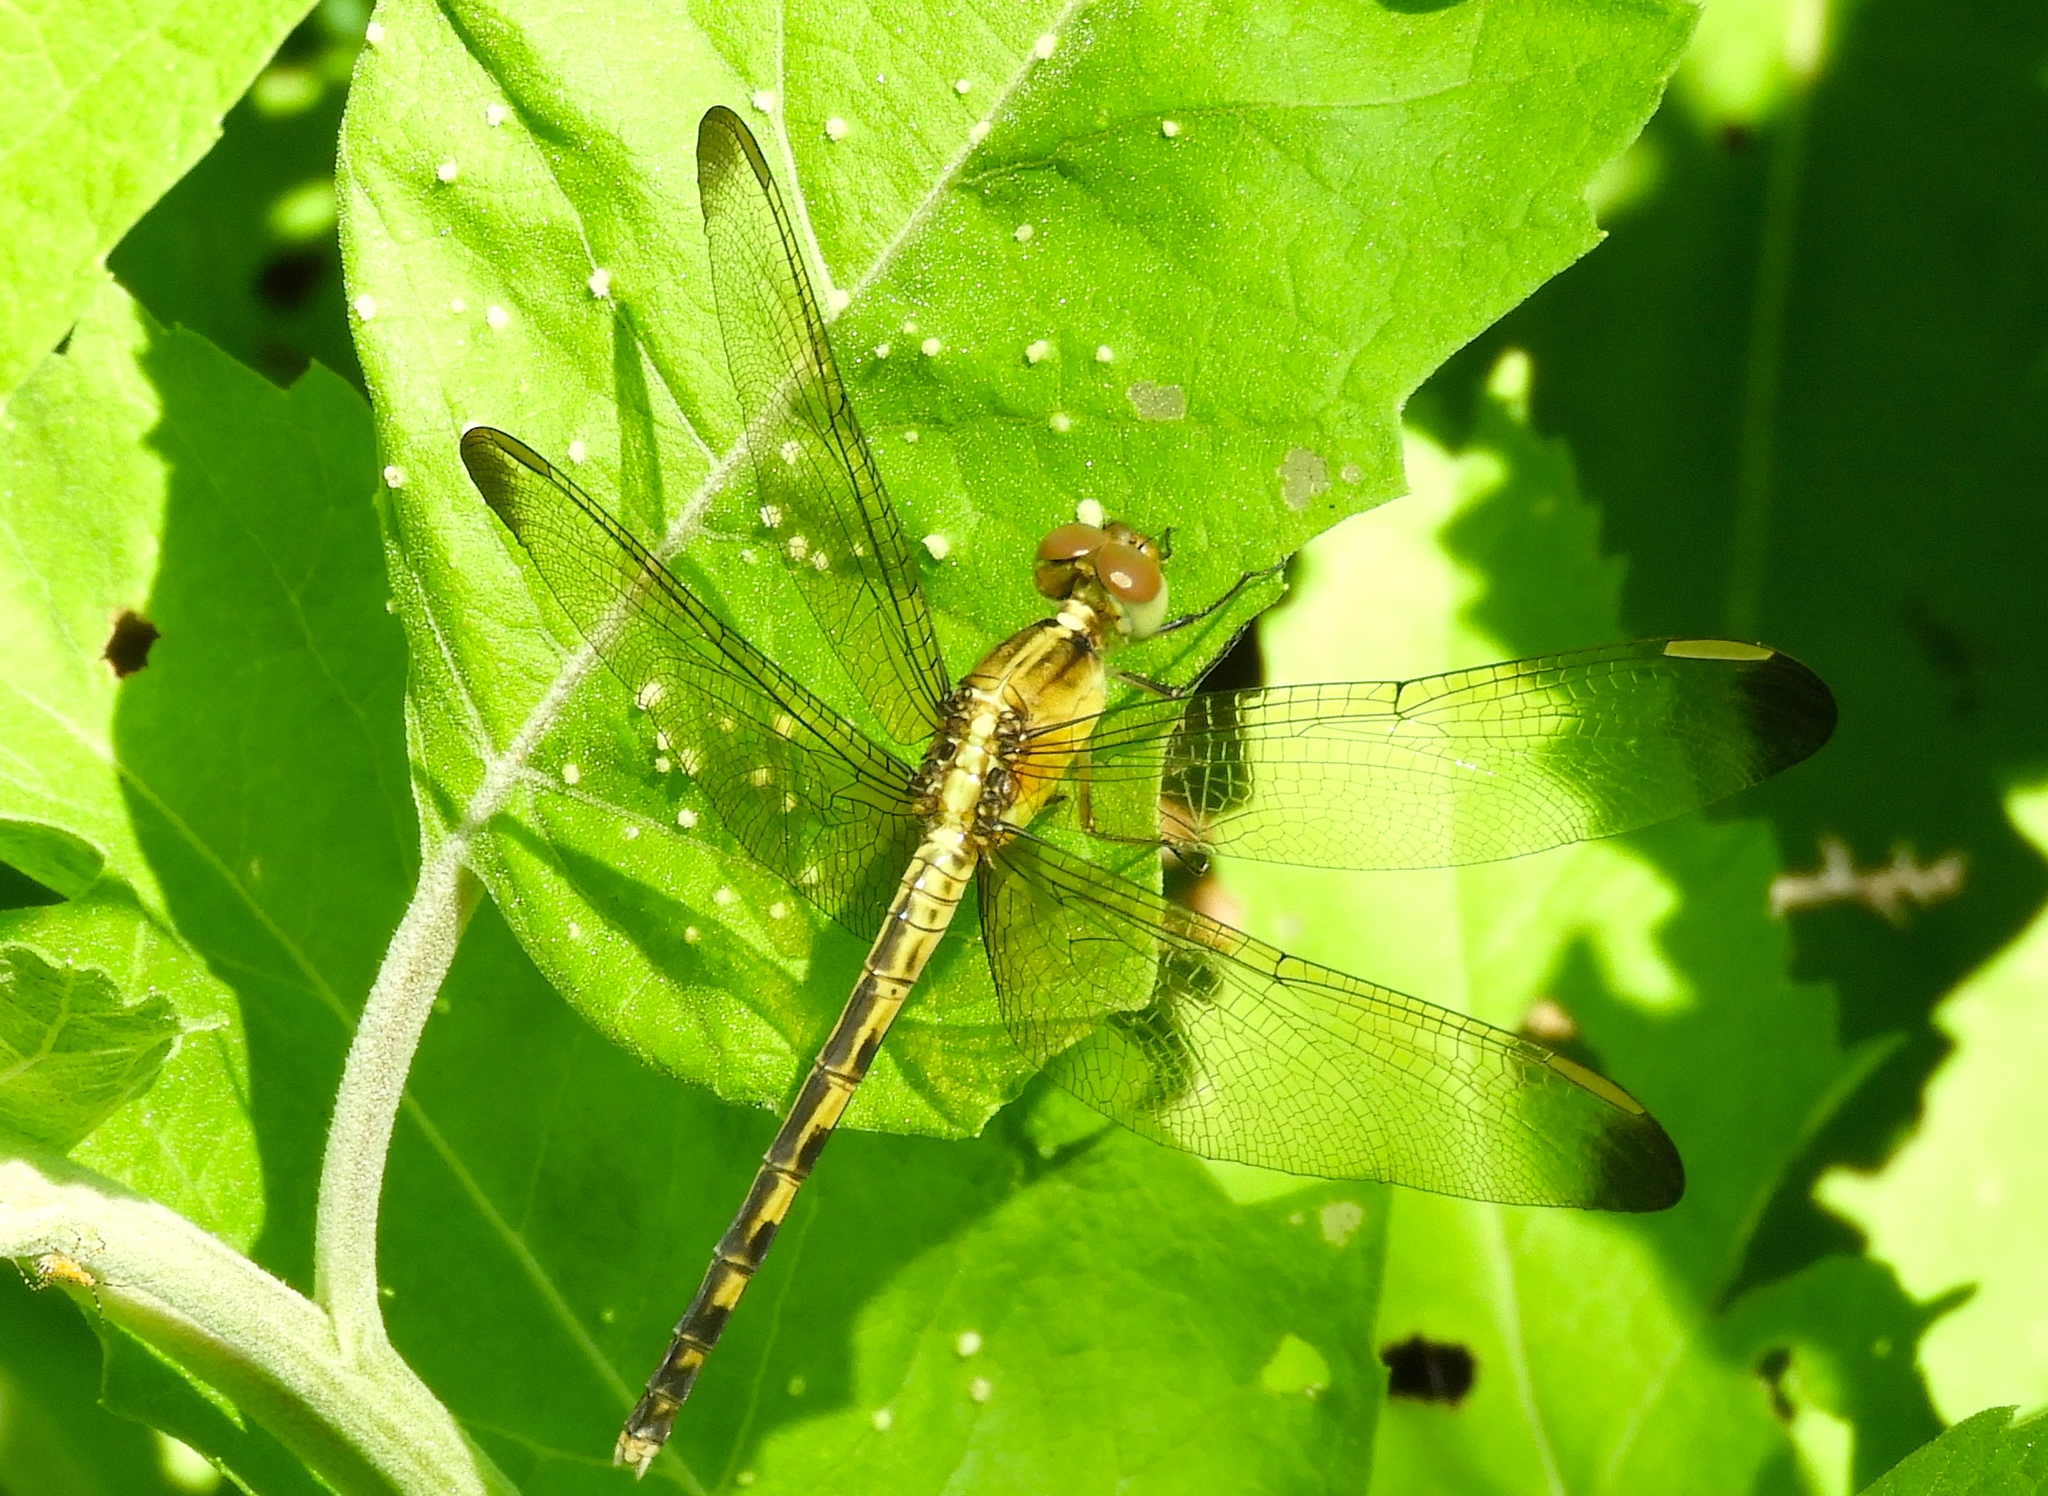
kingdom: Animalia
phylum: Arthropoda
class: Insecta
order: Odonata
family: Libellulidae
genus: Erythrodiplax
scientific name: Erythrodiplax funerea
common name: Black-winged dragonlet
